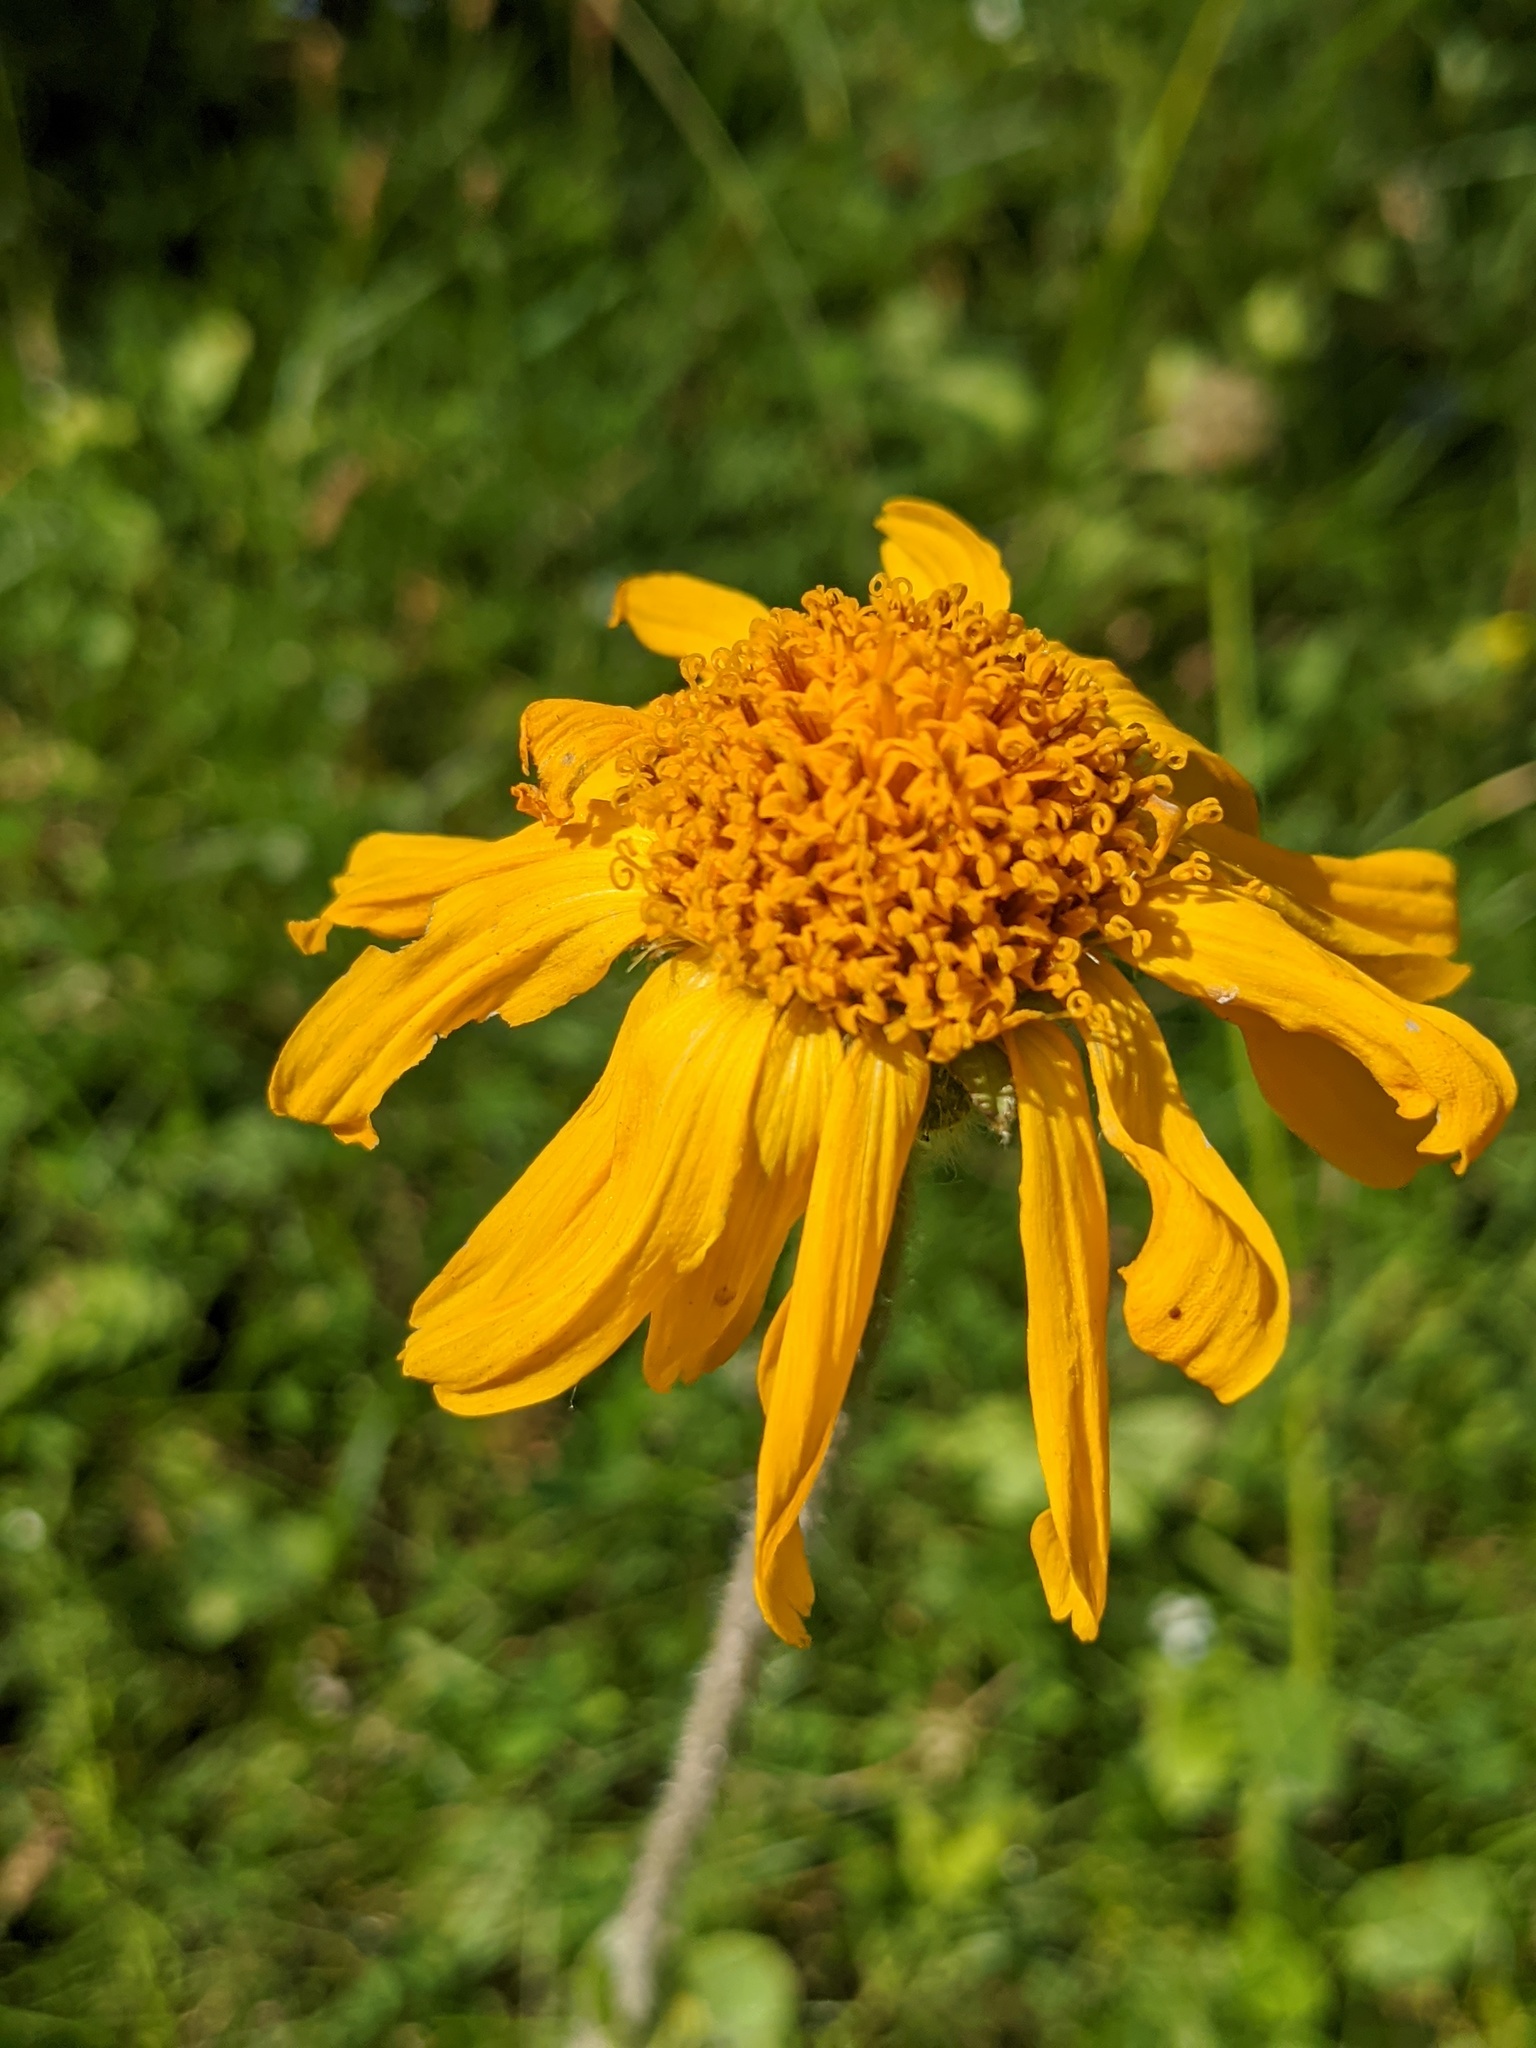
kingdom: Plantae
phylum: Tracheophyta
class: Magnoliopsida
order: Asterales
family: Asteraceae
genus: Arnica
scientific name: Arnica montana
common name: Leopard's bane
